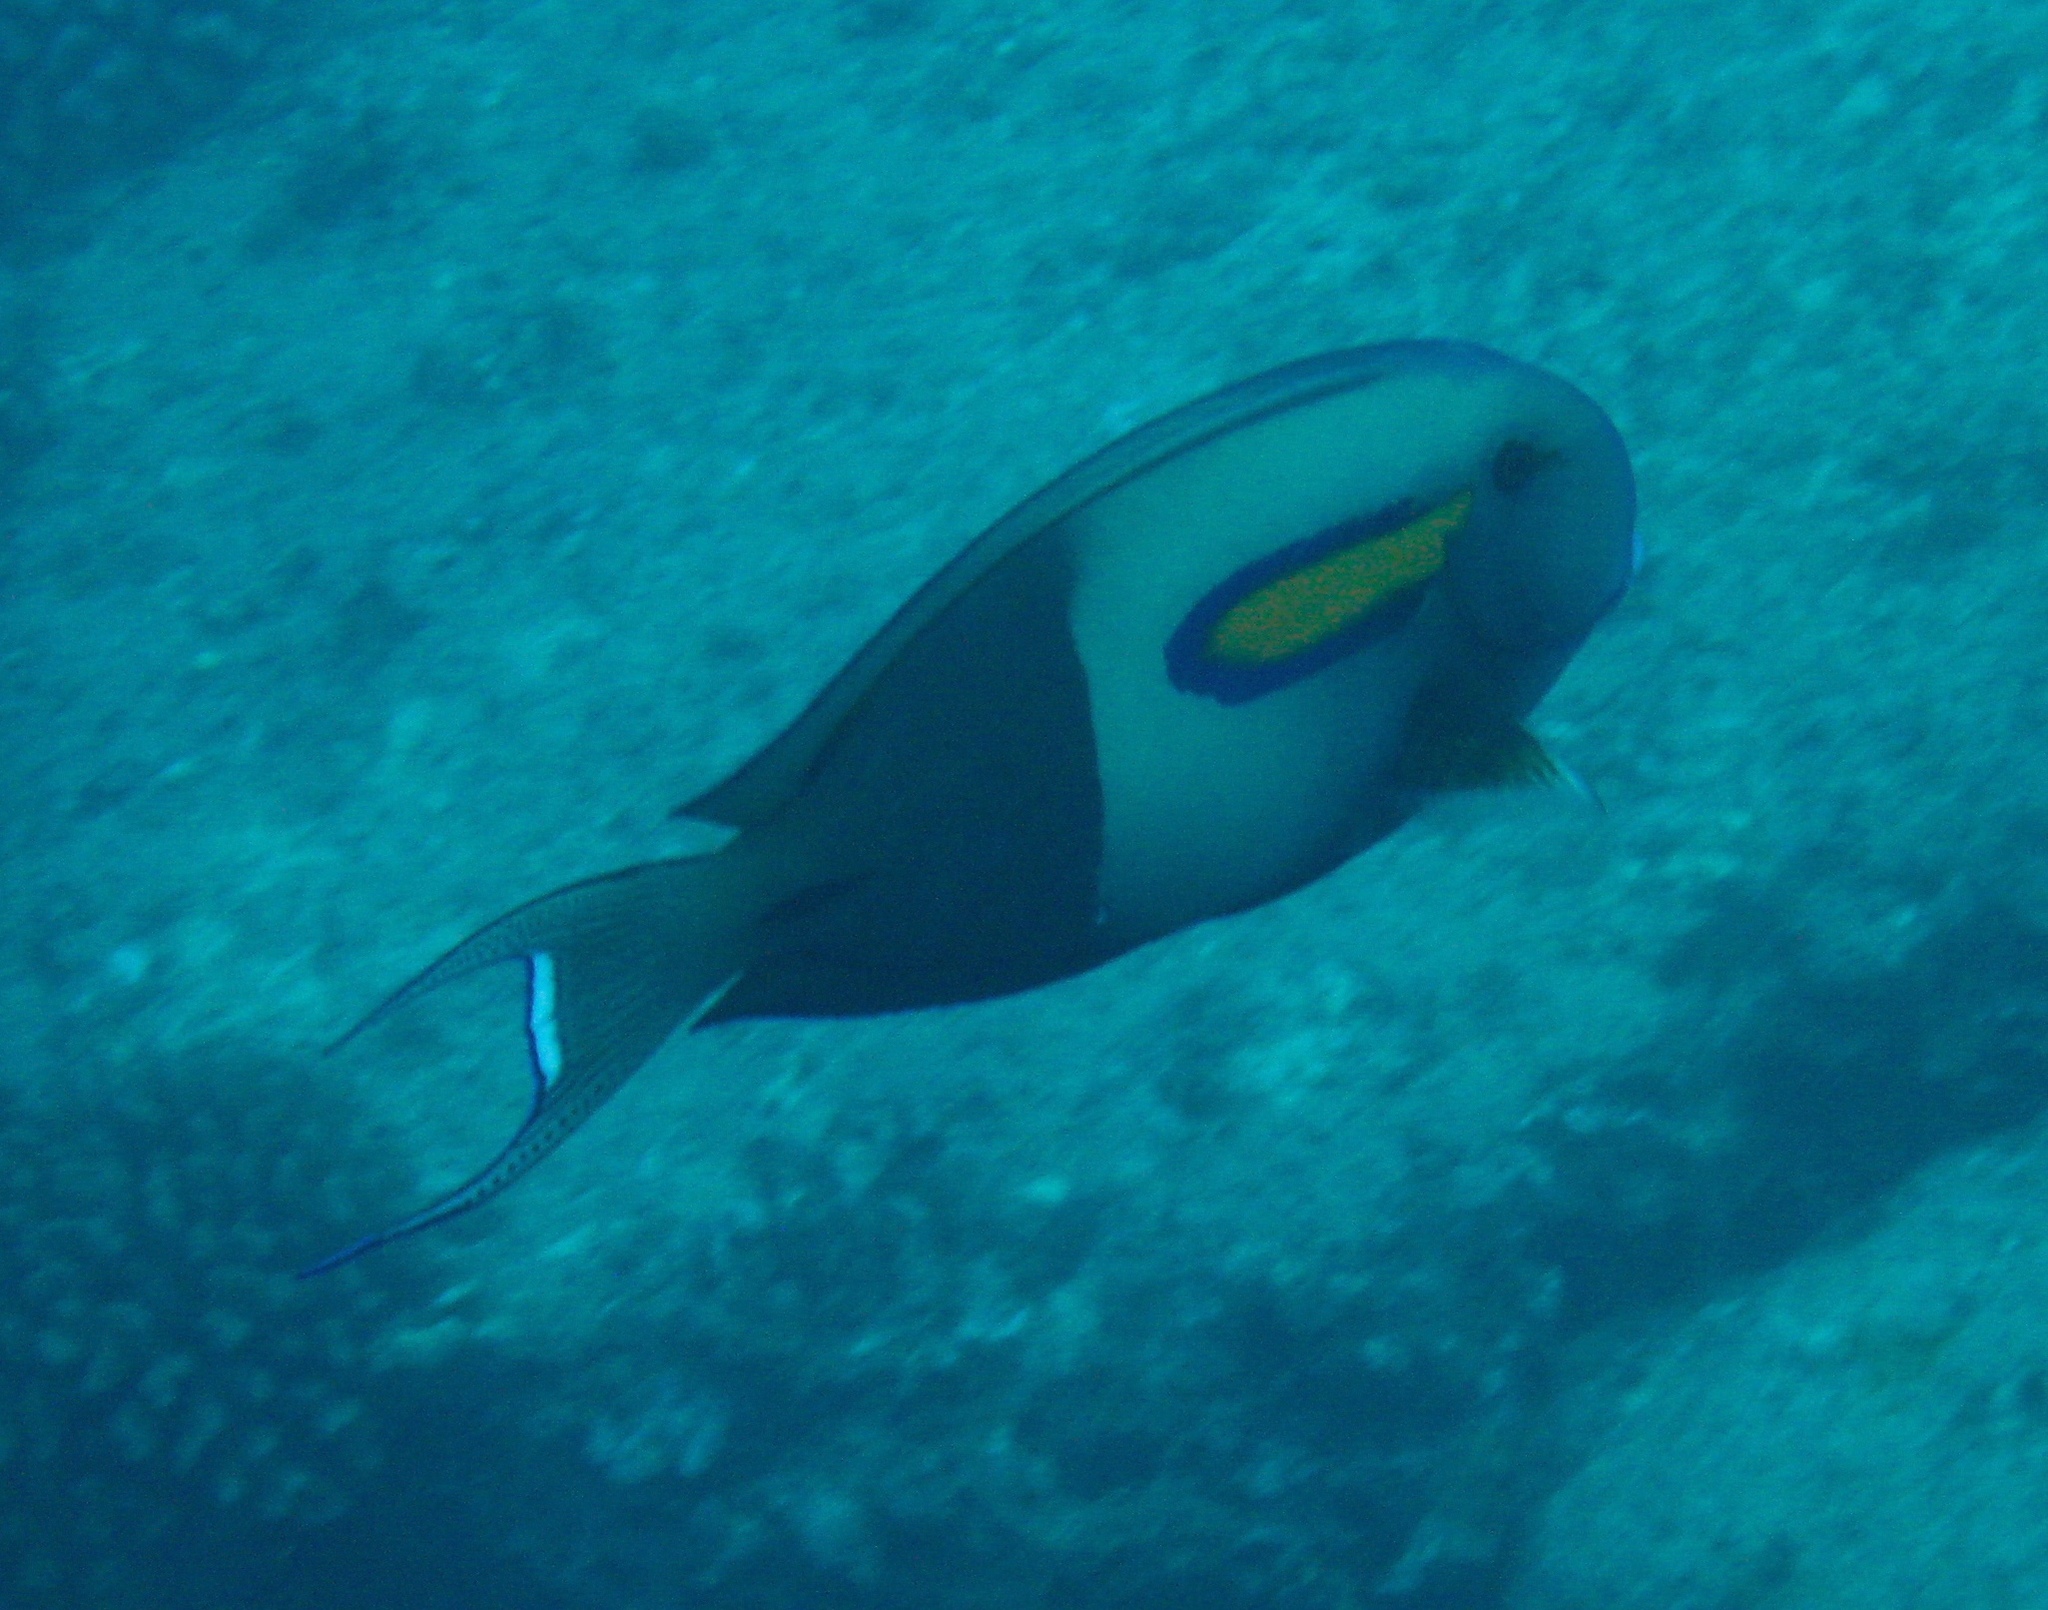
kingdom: Animalia
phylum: Chordata
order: Perciformes
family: Acanthuridae
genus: Acanthurus
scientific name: Acanthurus olivaceus
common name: Gendarme fish
